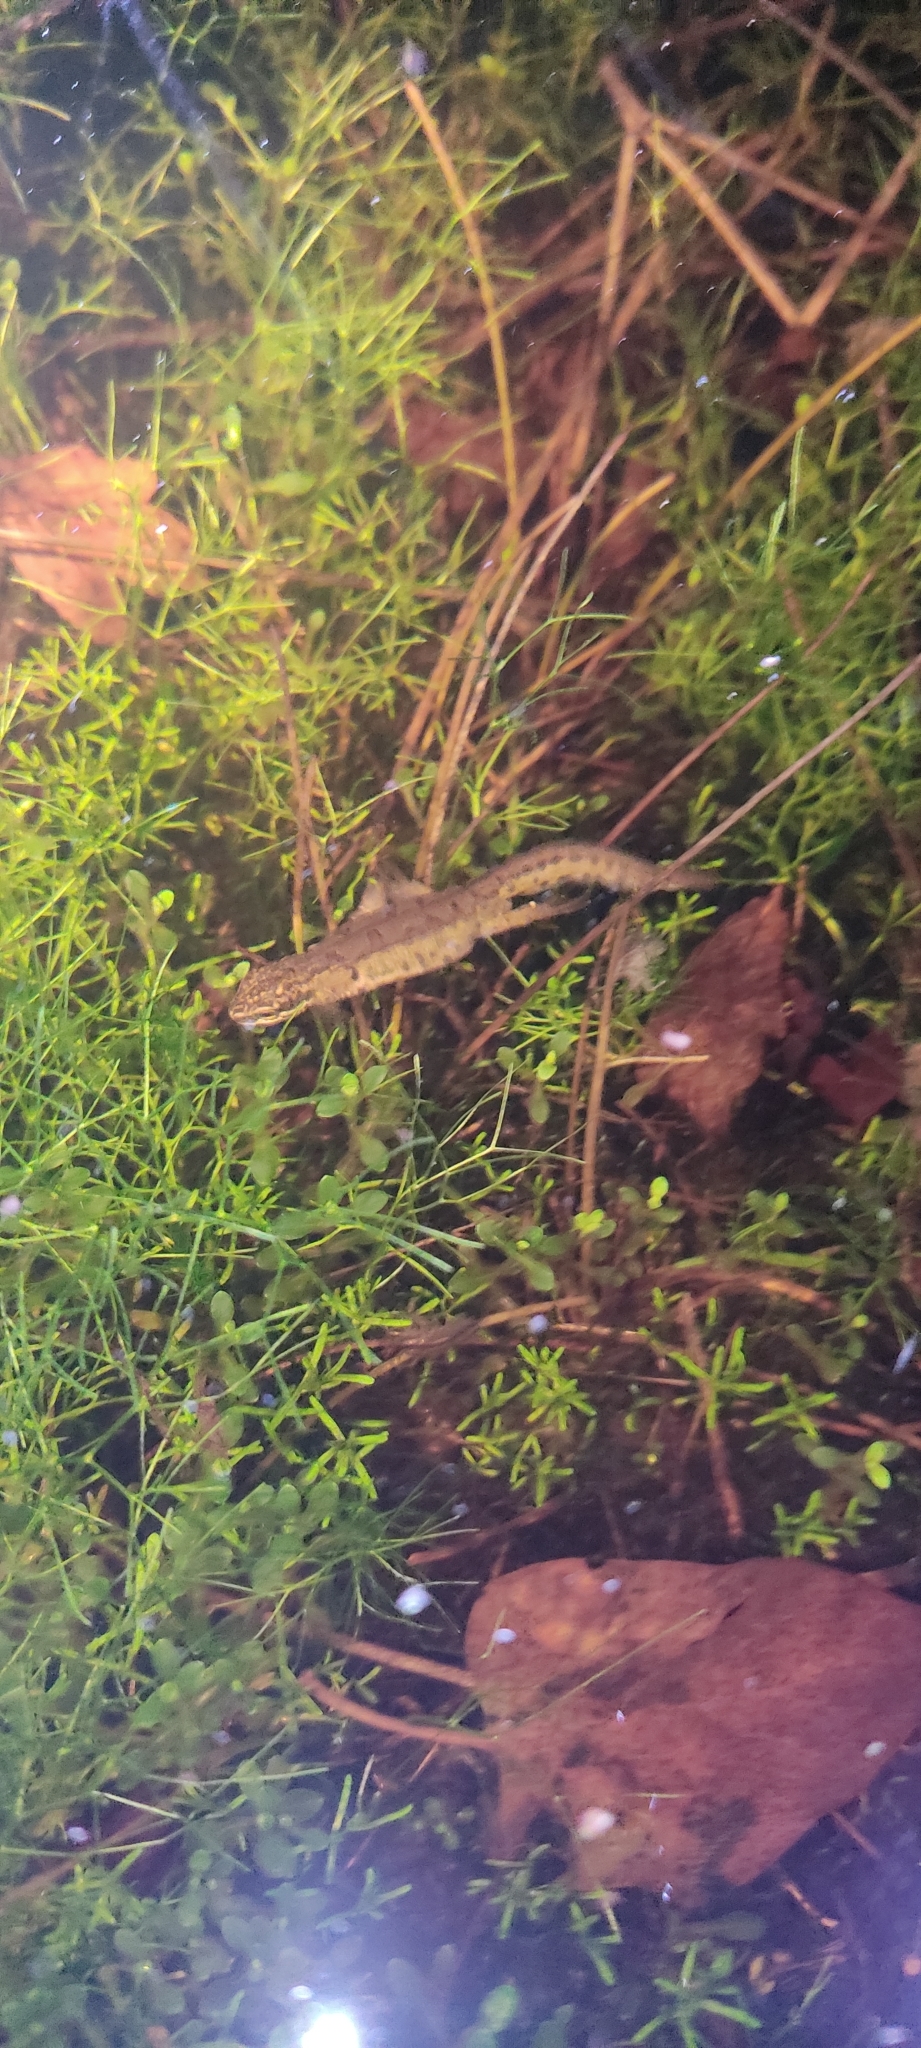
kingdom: Animalia
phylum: Chordata
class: Amphibia
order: Caudata
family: Salamandridae
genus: Lissotriton
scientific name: Lissotriton helveticus
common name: Palmate newt
